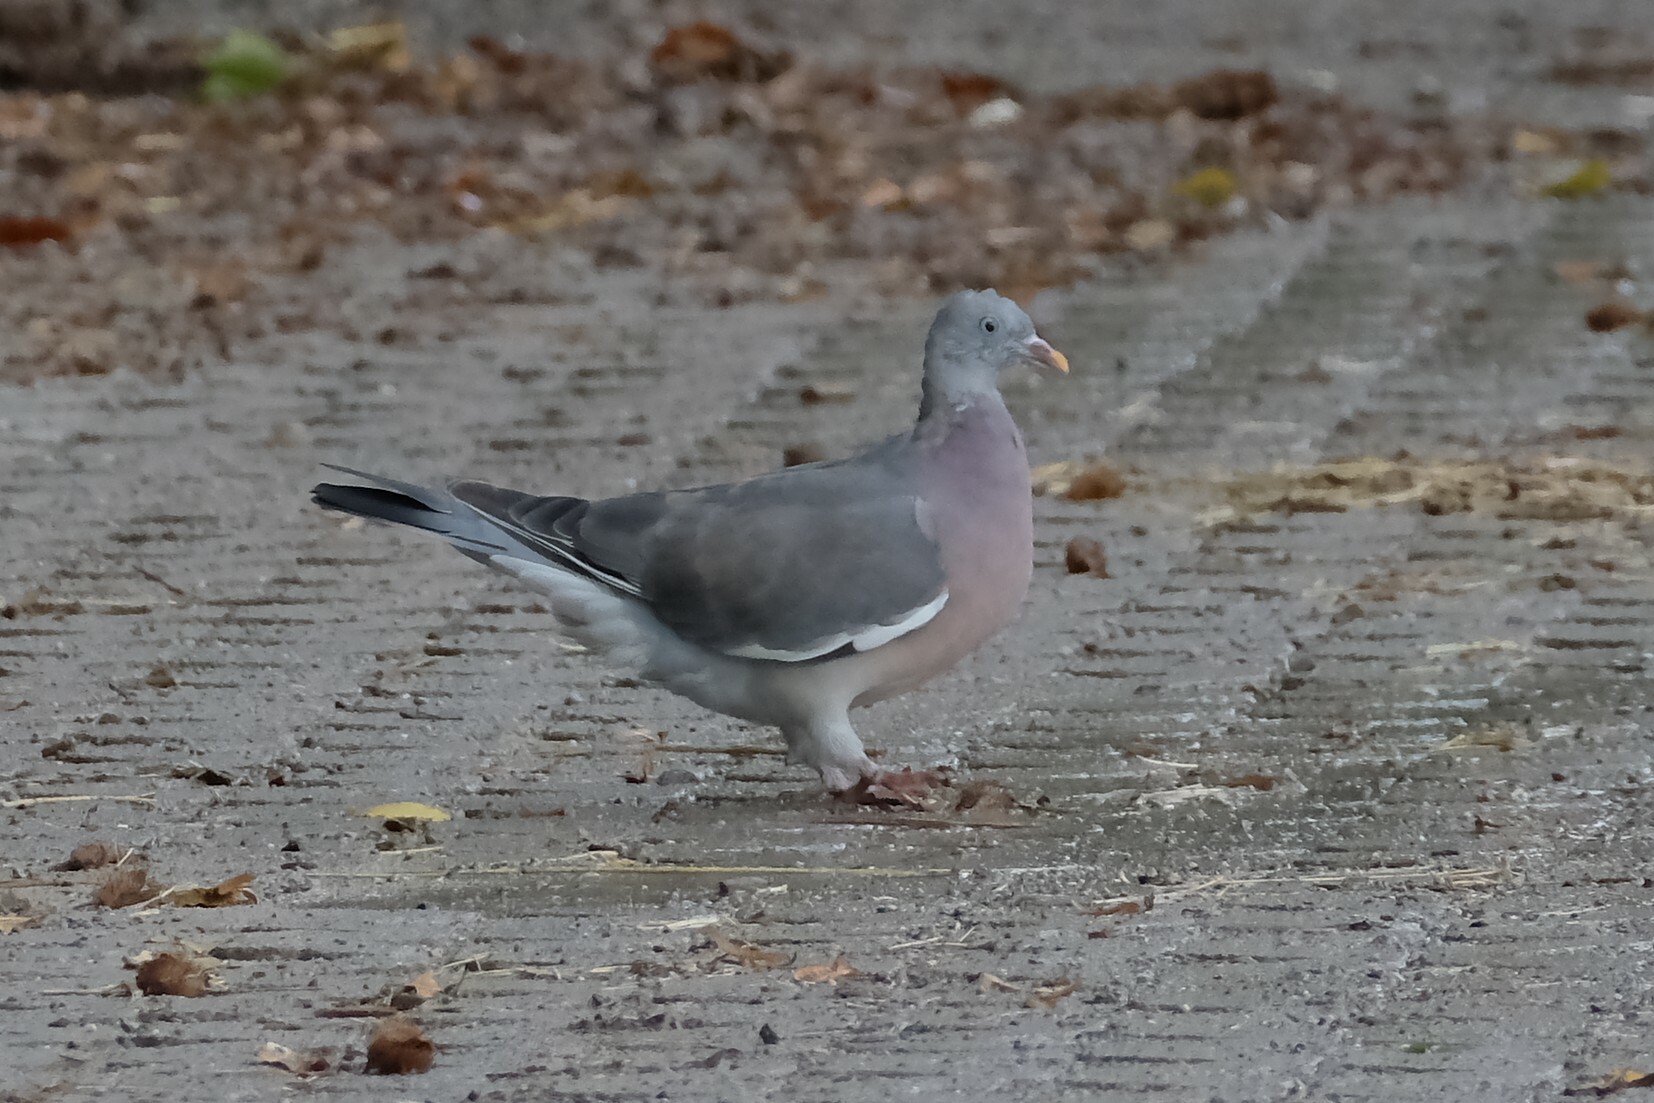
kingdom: Animalia
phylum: Chordata
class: Aves
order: Columbiformes
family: Columbidae
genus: Columba
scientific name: Columba palumbus
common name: Common wood pigeon
